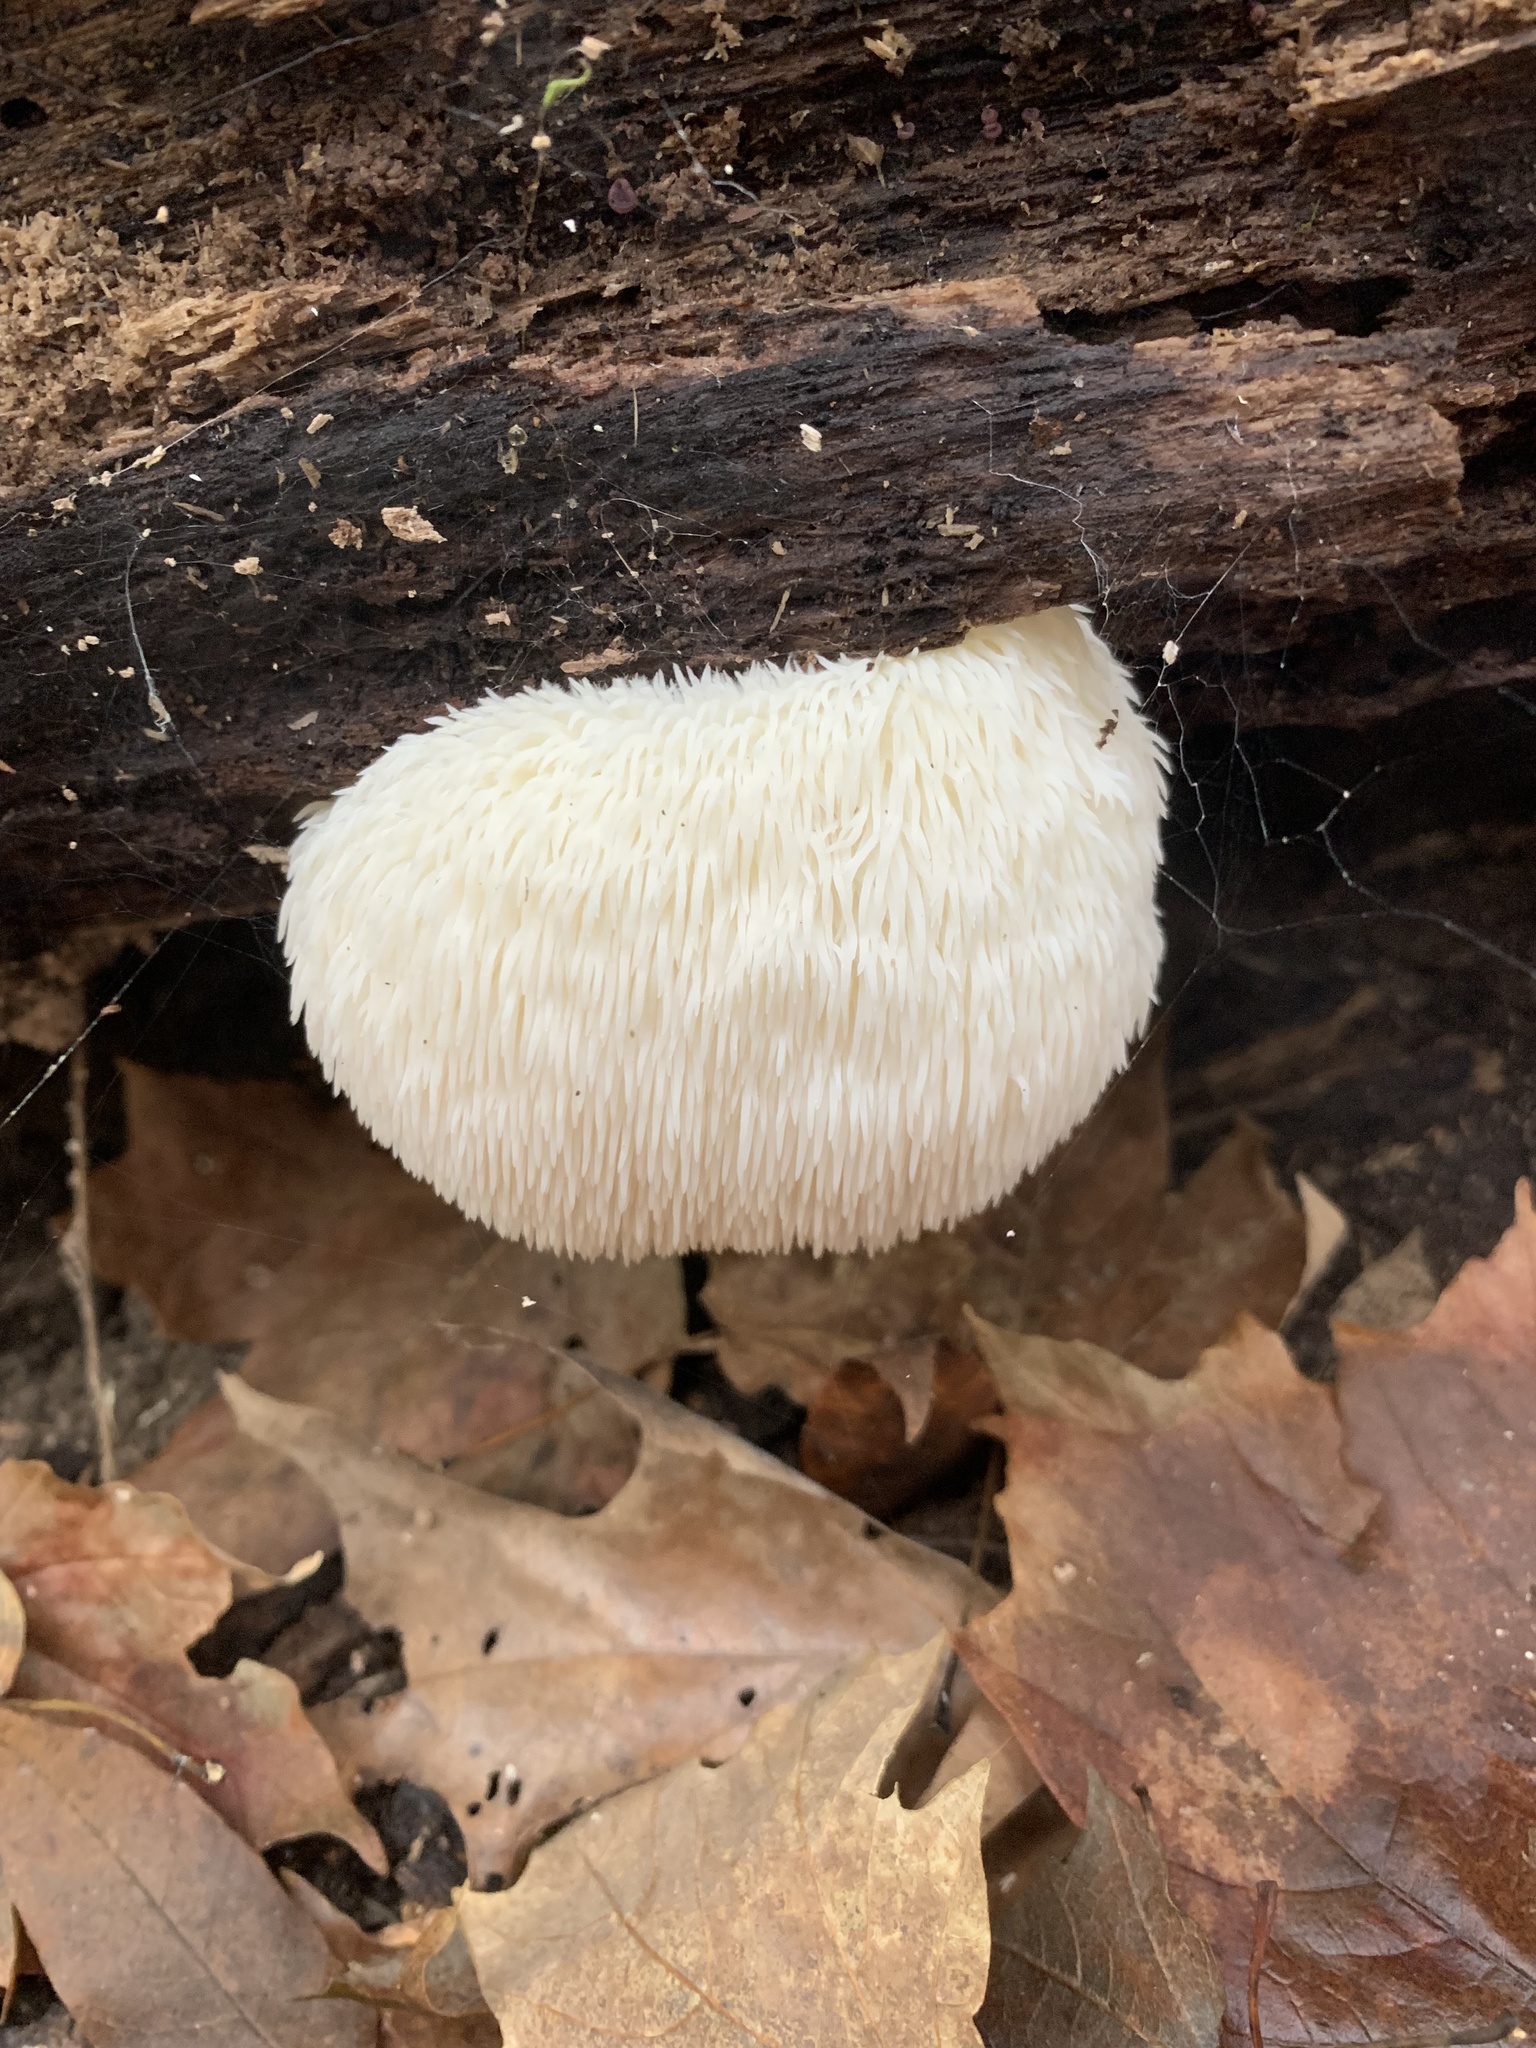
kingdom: Fungi
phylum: Basidiomycota
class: Agaricomycetes
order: Russulales
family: Hericiaceae
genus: Hericium
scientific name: Hericium erinaceus
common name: Bearded tooth
